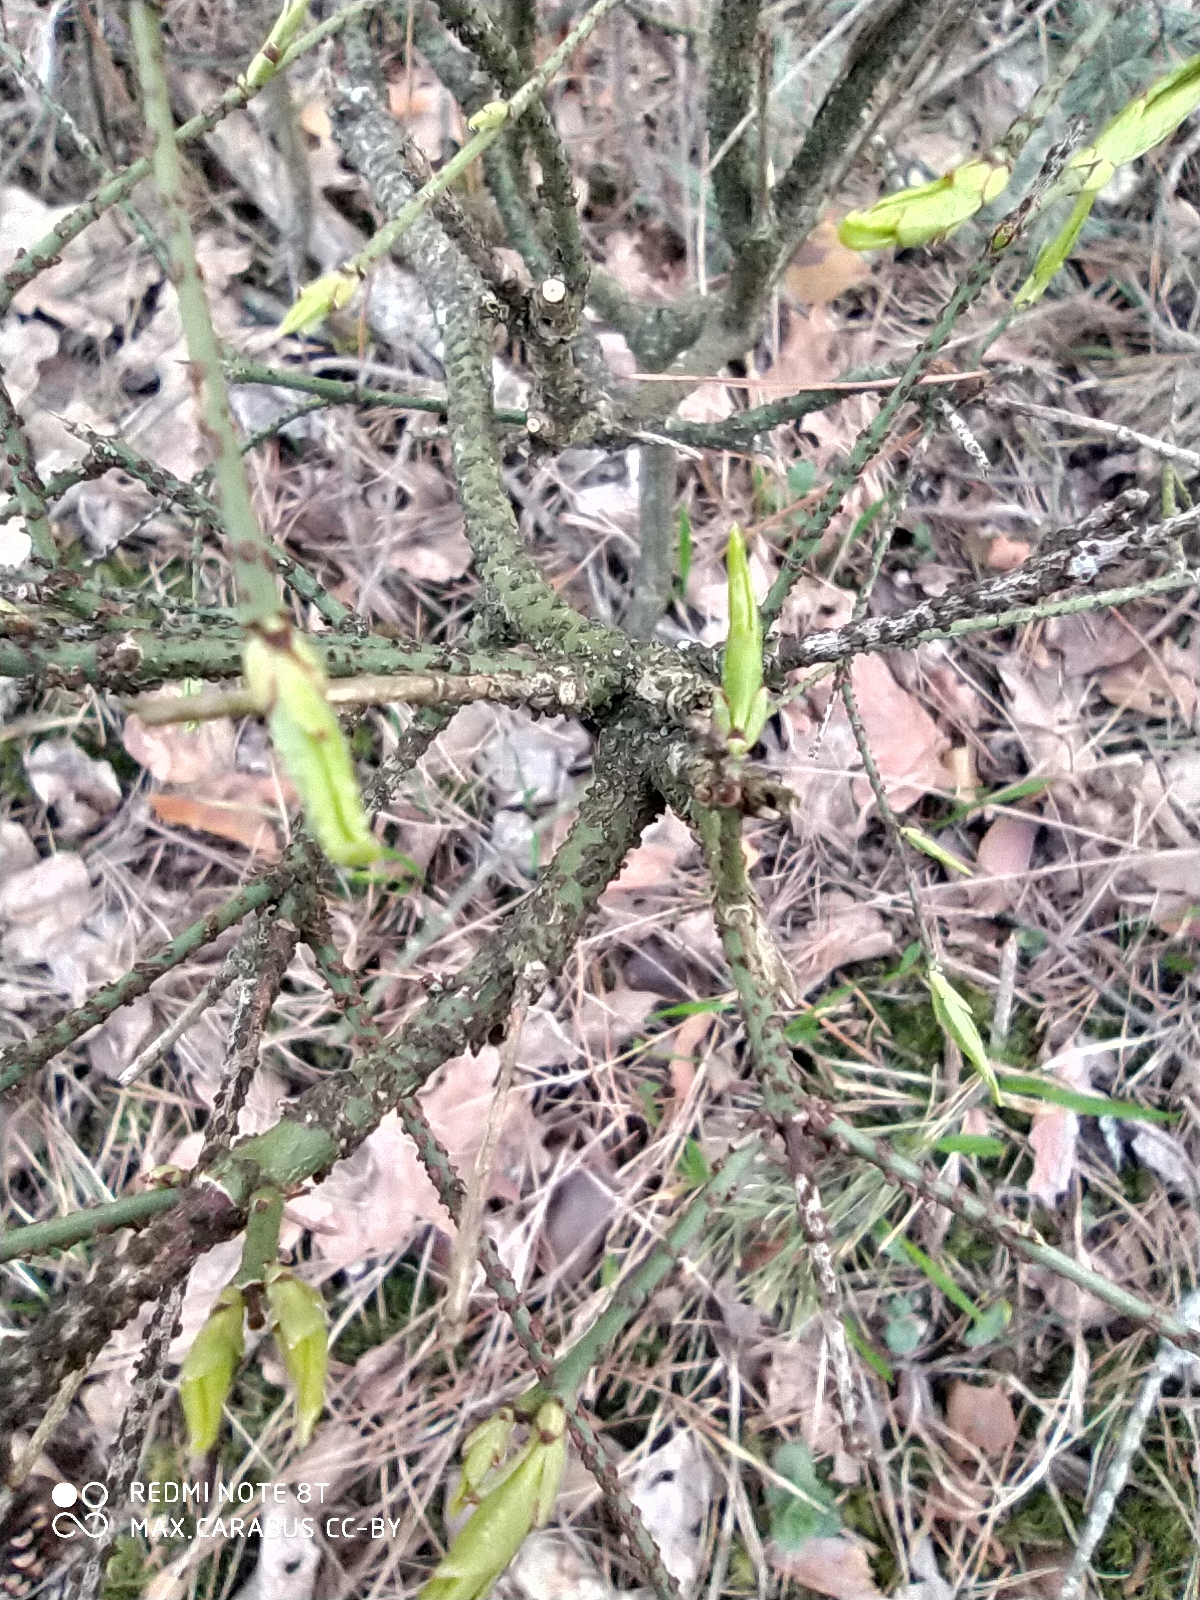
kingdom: Plantae
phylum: Tracheophyta
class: Magnoliopsida
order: Celastrales
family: Celastraceae
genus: Euonymus
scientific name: Euonymus verrucosus
